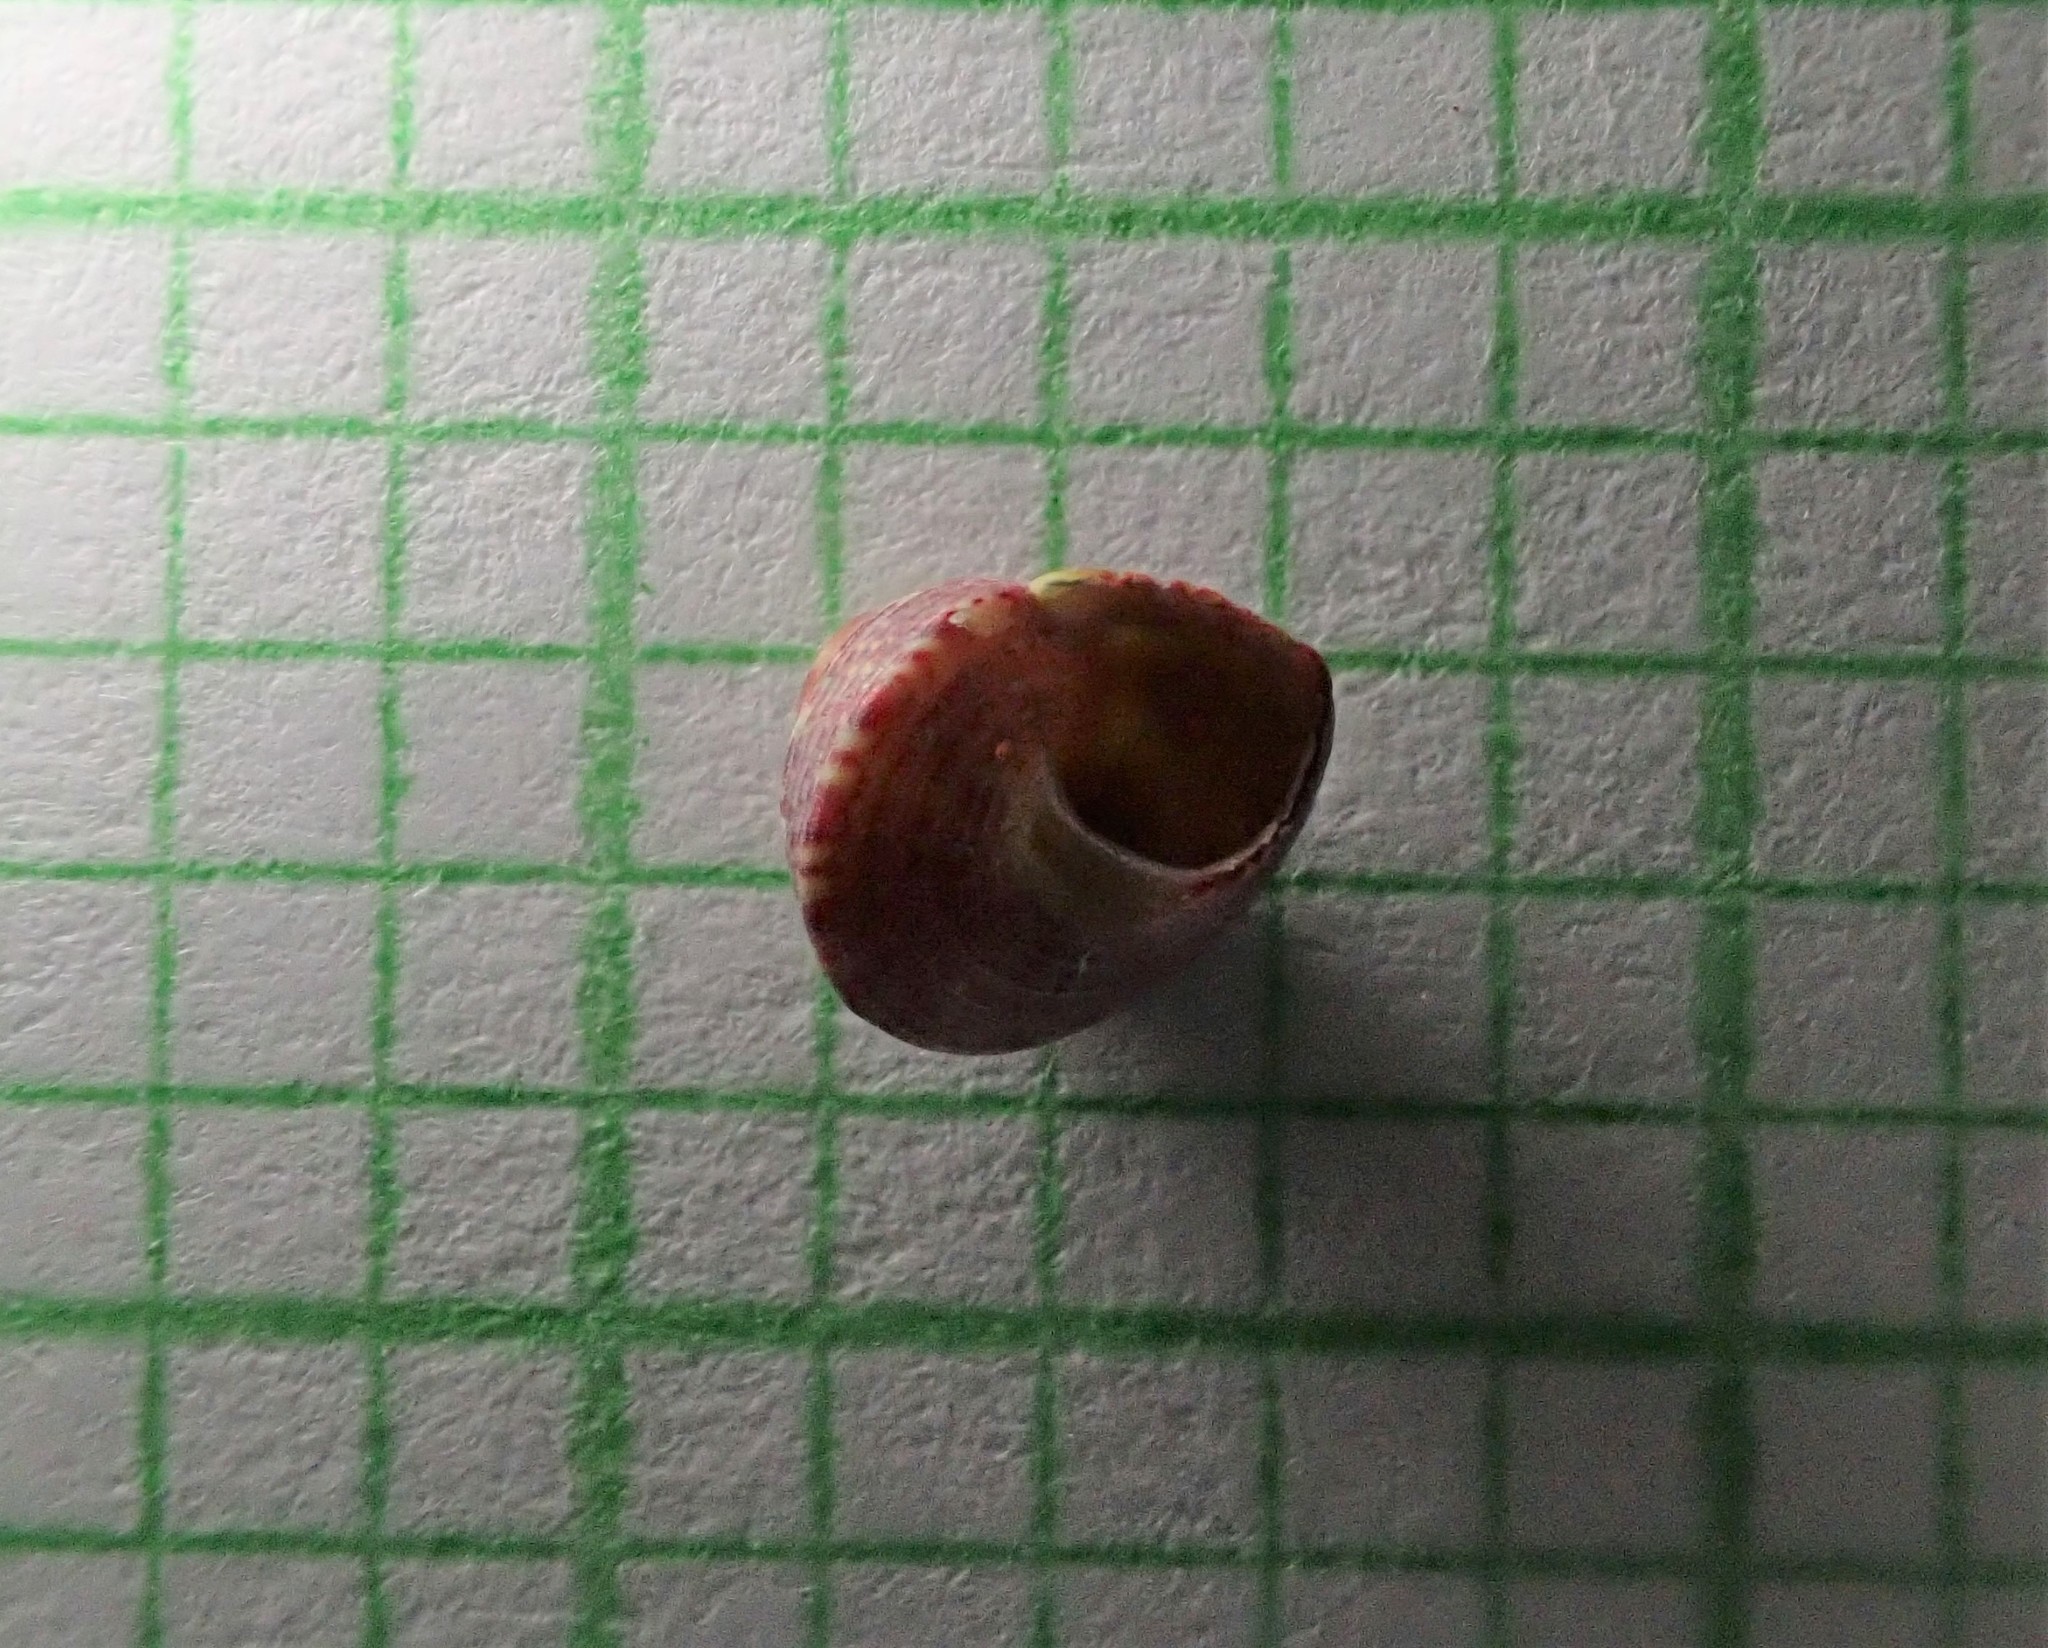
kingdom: Animalia
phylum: Mollusca
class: Gastropoda
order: Trochida
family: Trochidae
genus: Micrelenchus
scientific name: Micrelenchus sanguineus
